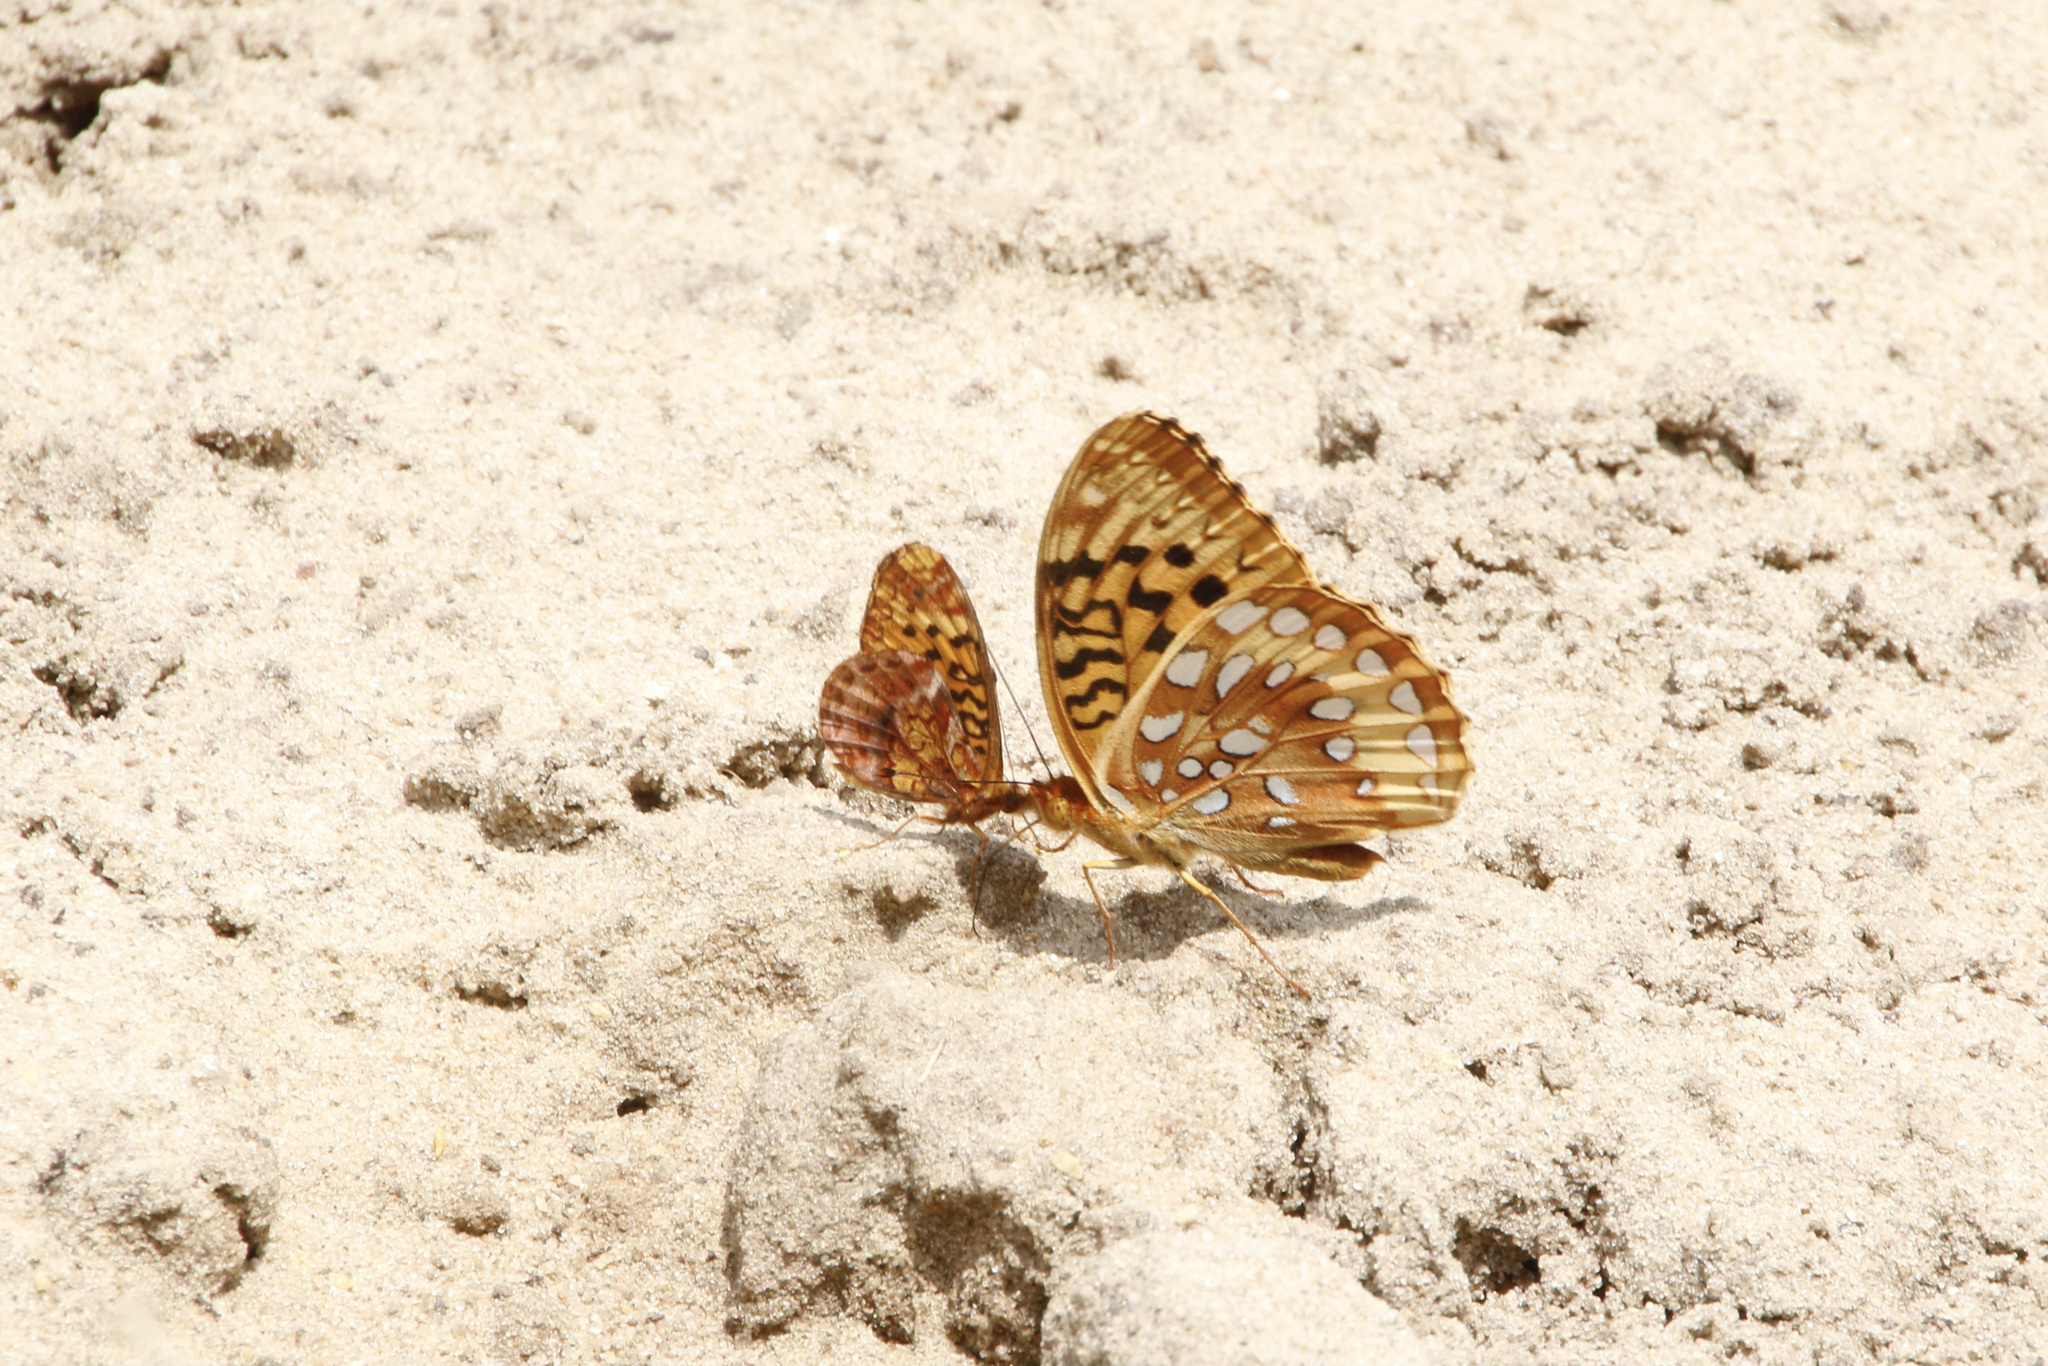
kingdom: Animalia
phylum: Arthropoda
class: Insecta
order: Lepidoptera
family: Nymphalidae
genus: Clossiana
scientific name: Clossiana toddi
